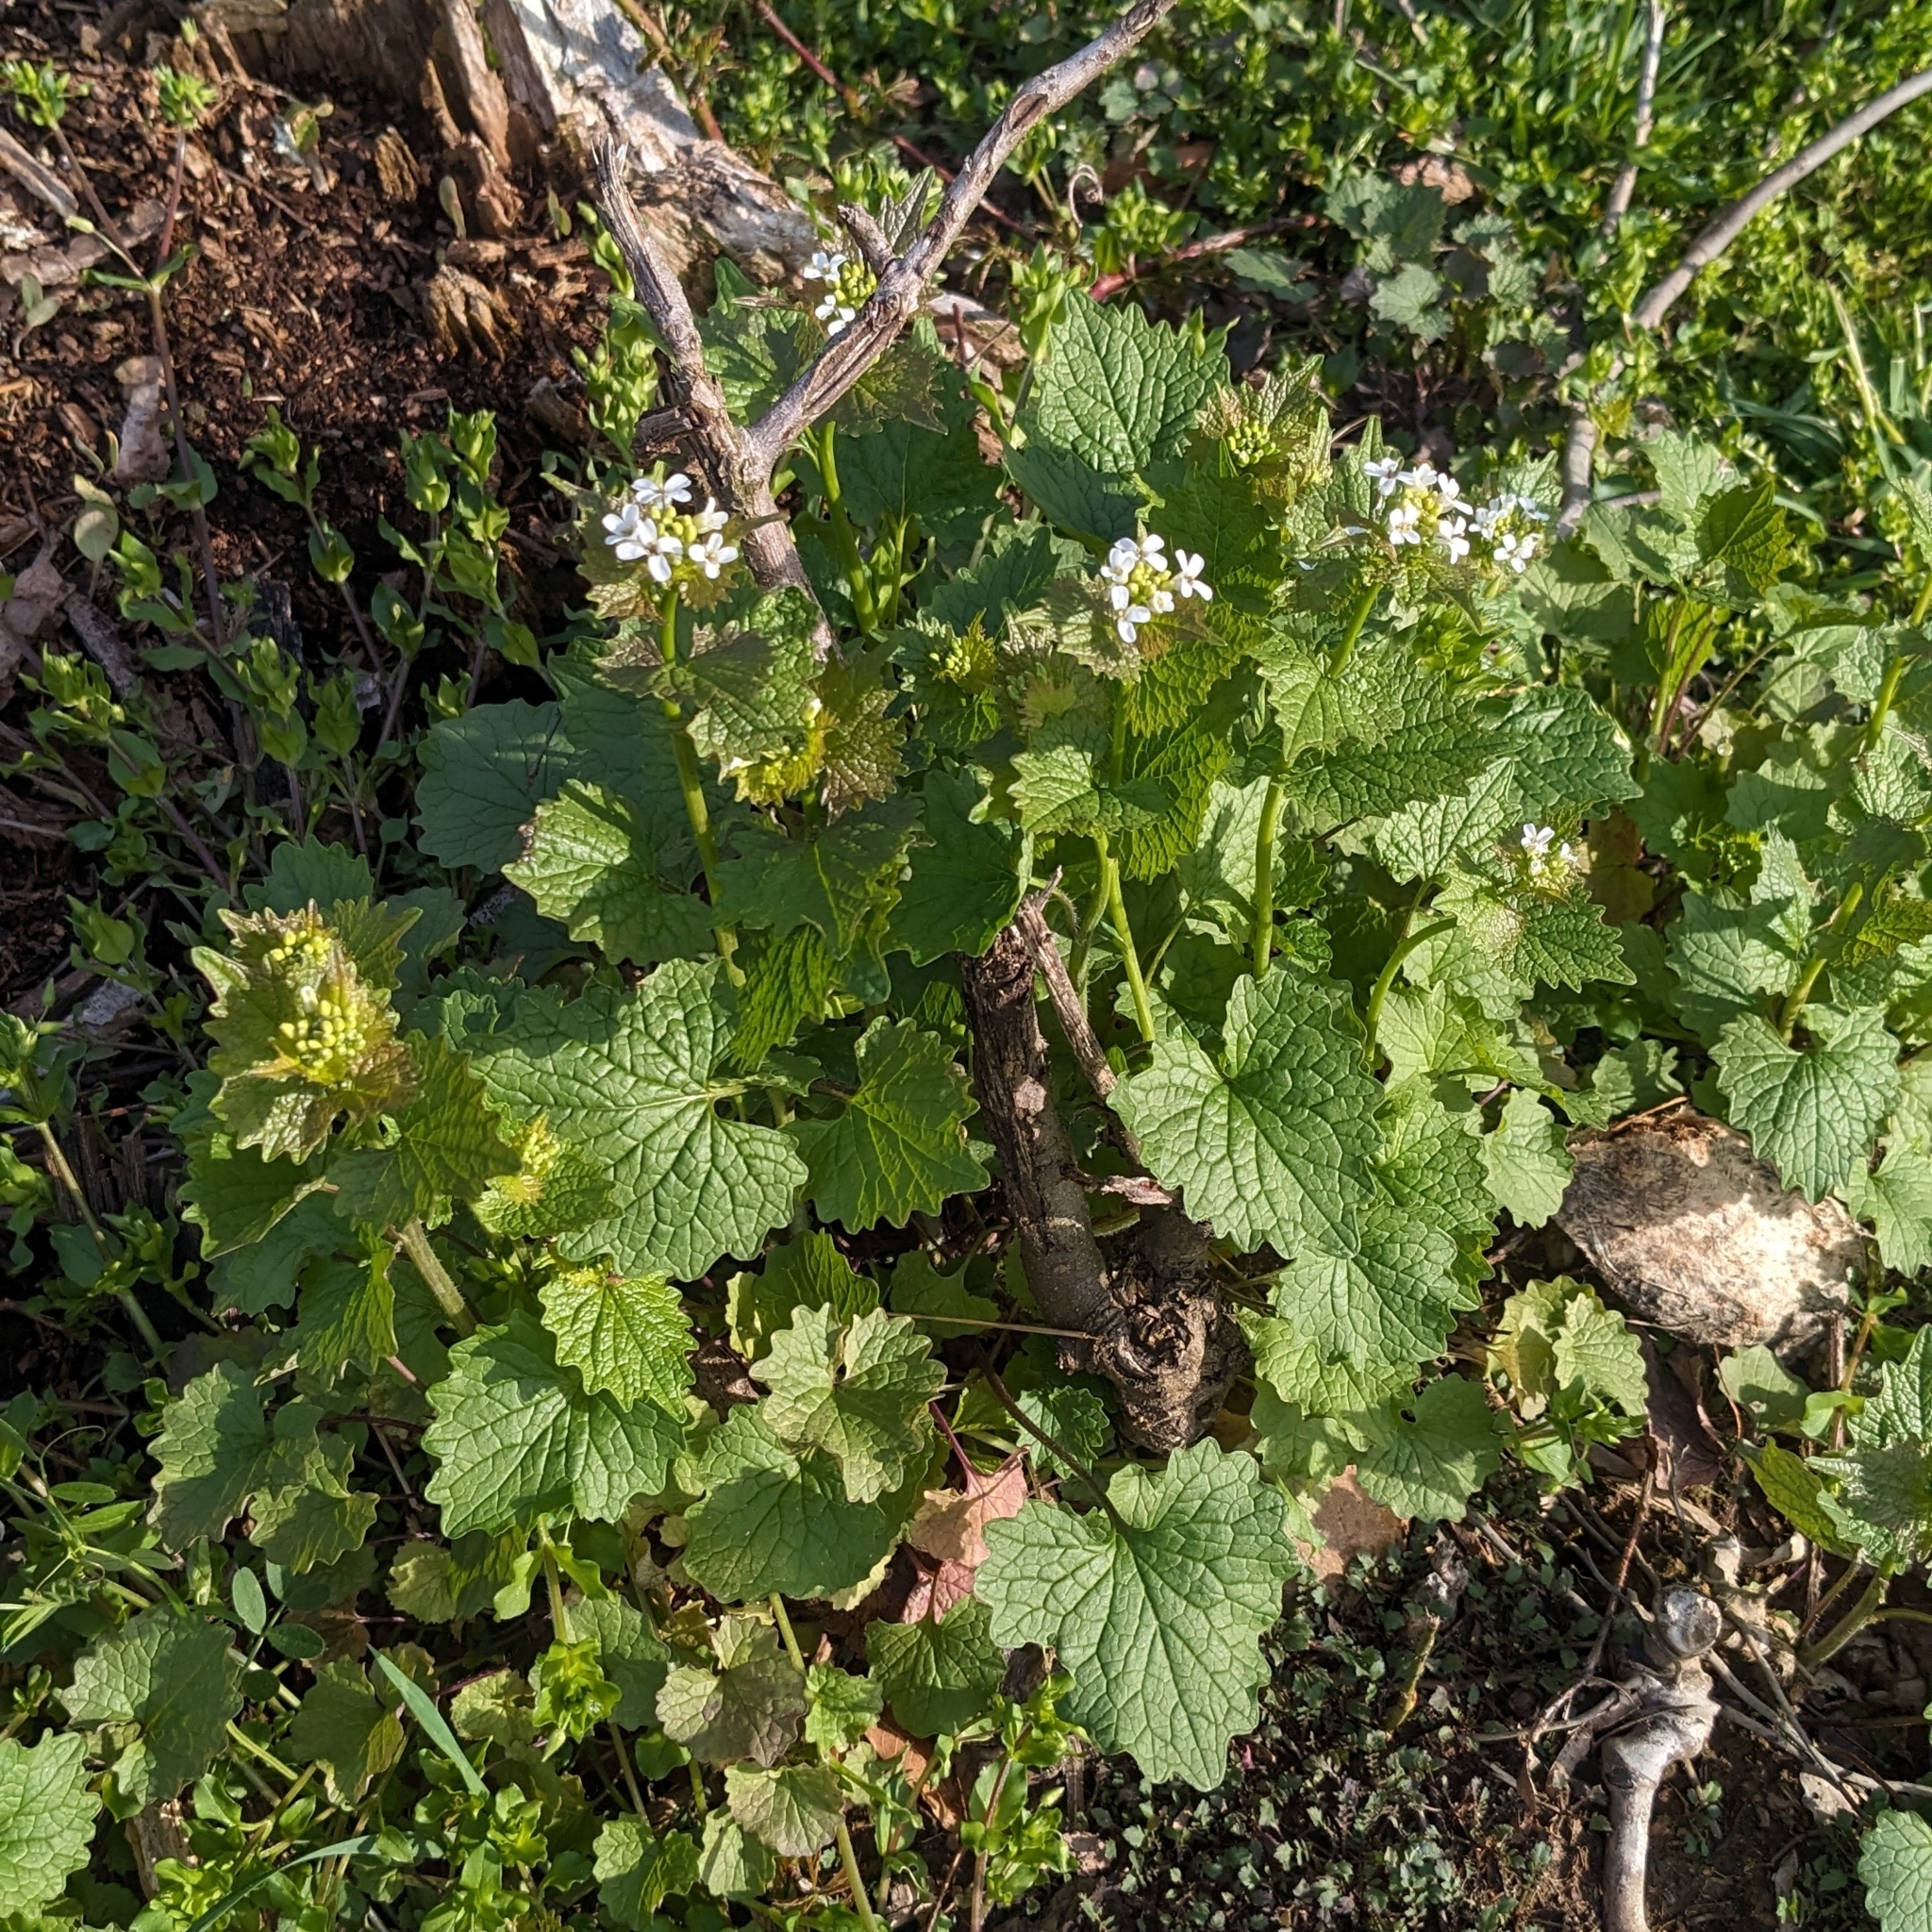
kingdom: Plantae
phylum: Tracheophyta
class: Magnoliopsida
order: Brassicales
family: Brassicaceae
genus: Alliaria
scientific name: Alliaria petiolata
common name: Garlic mustard
